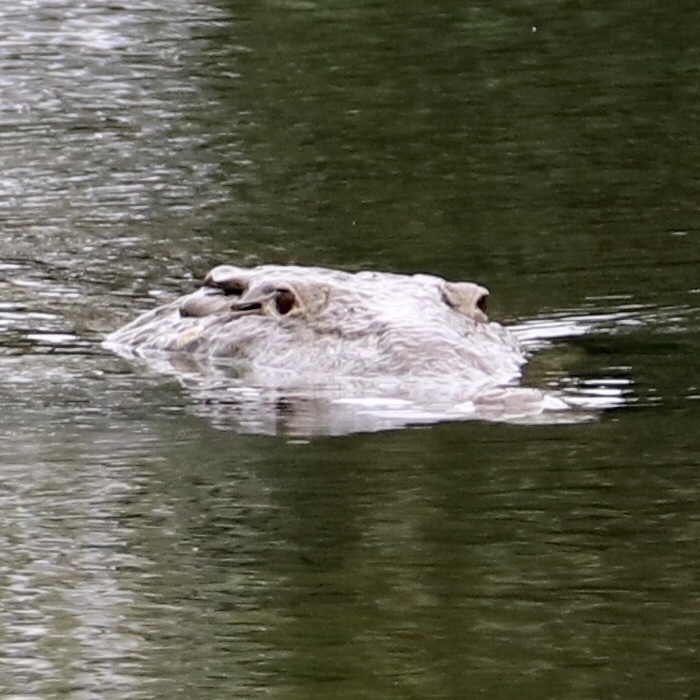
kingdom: Animalia
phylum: Chordata
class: Crocodylia
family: Crocodylidae
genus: Crocodylus
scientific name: Crocodylus acutus
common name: American crocodile
